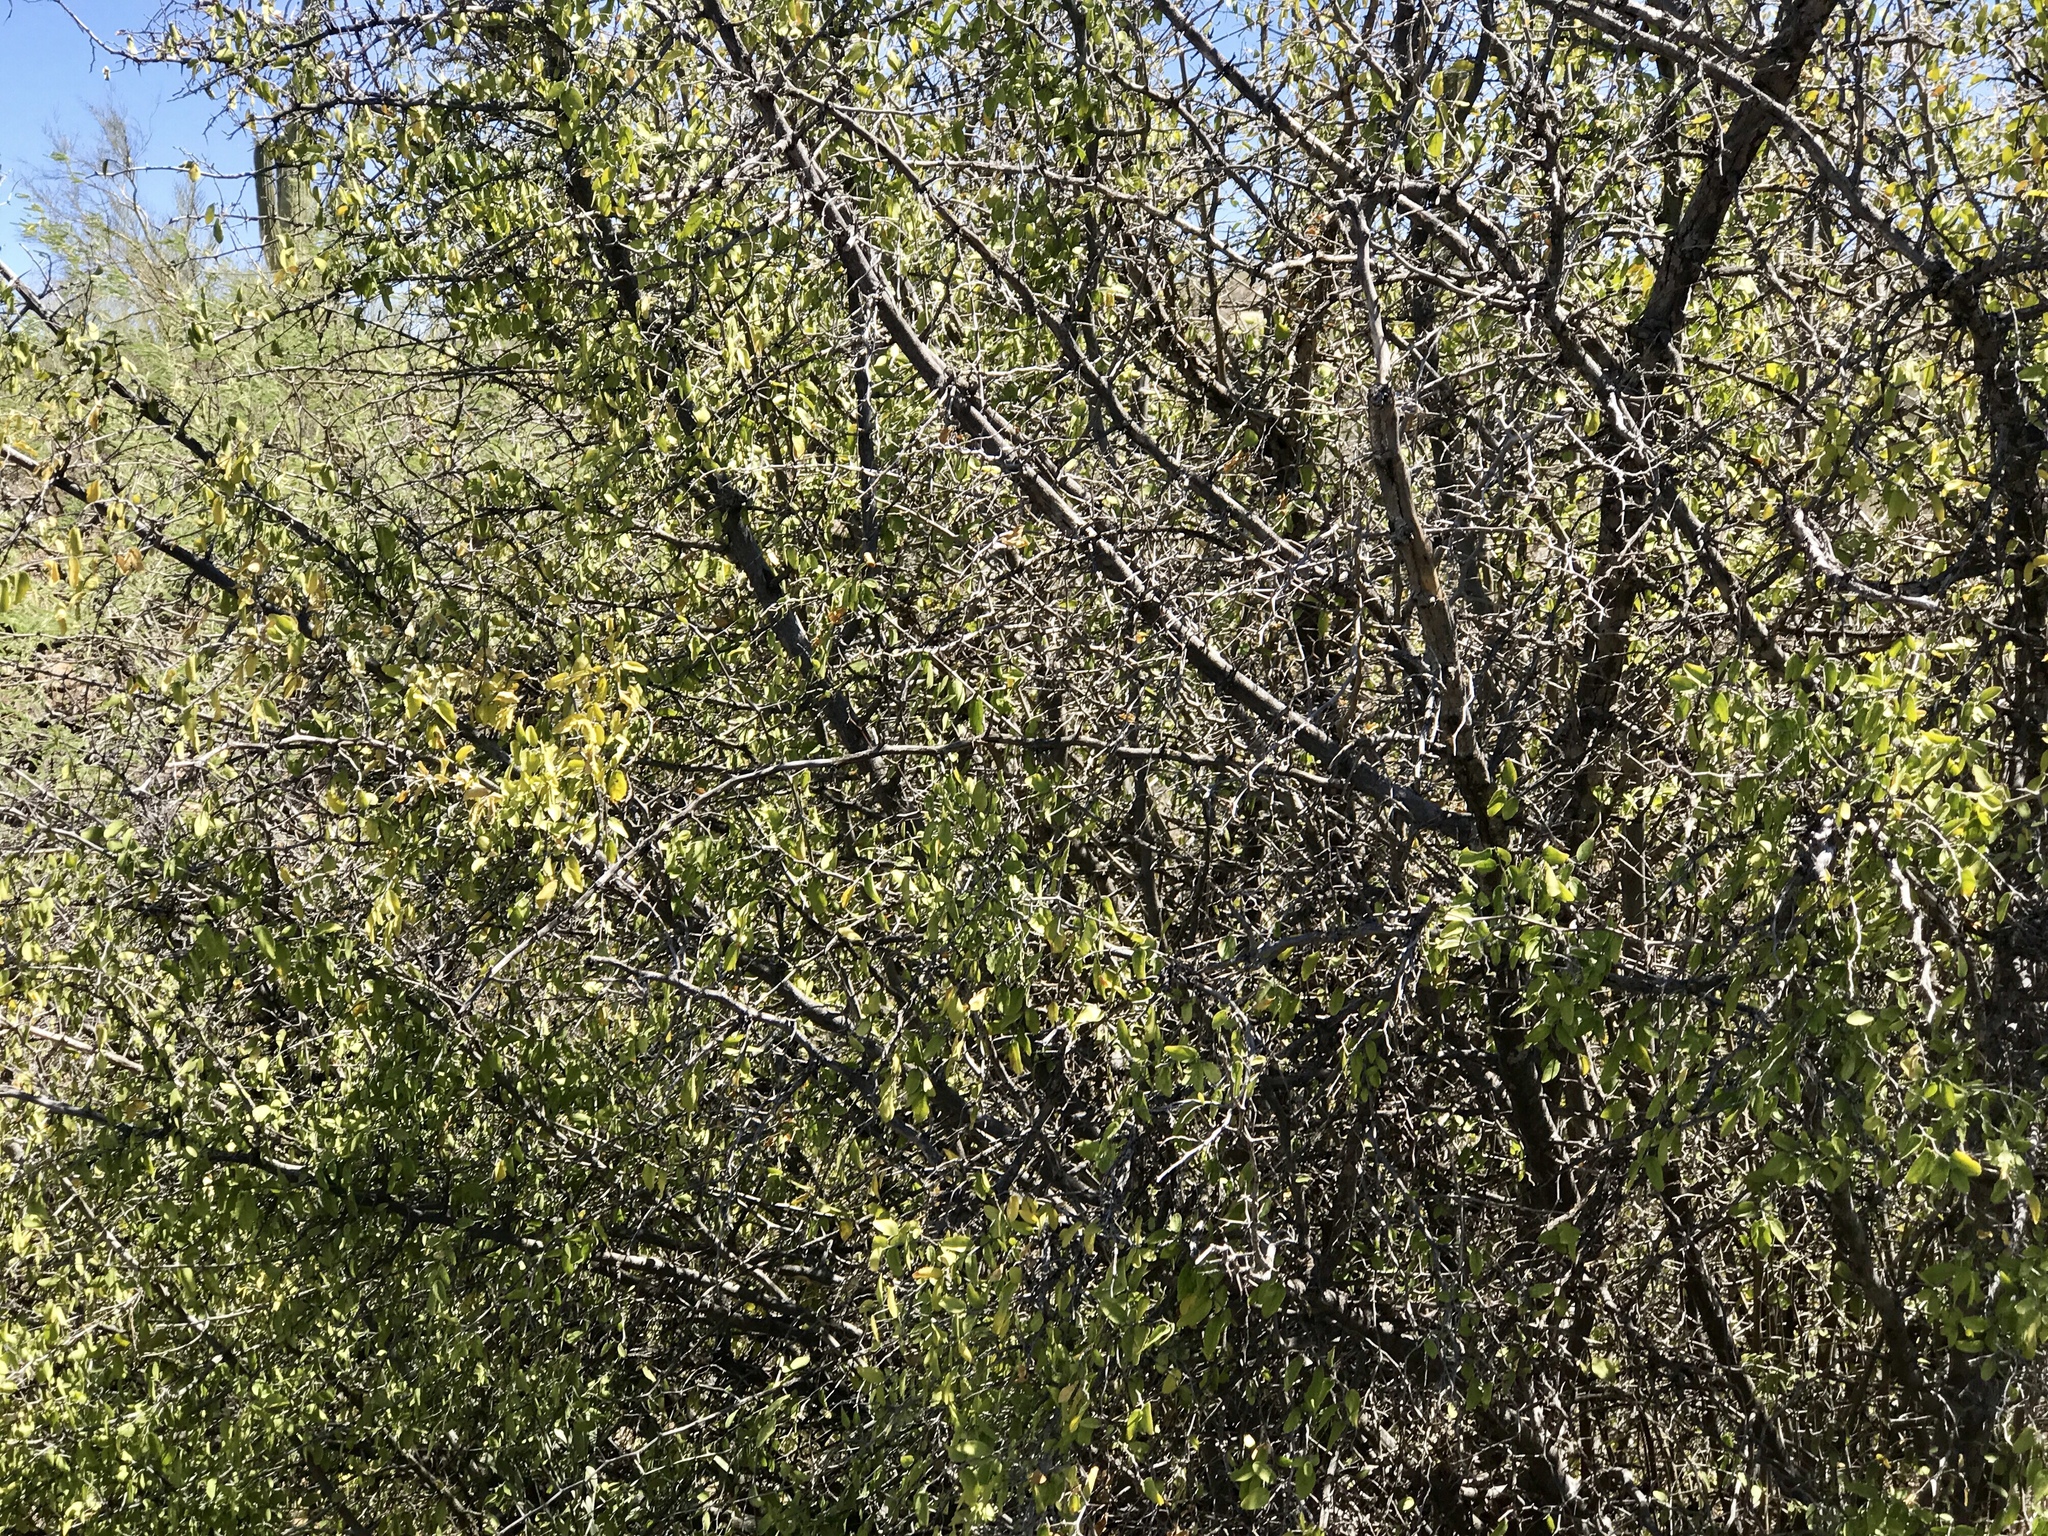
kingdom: Plantae
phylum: Tracheophyta
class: Magnoliopsida
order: Rosales
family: Cannabaceae
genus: Celtis
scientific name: Celtis pallida
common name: Desert hackberry
